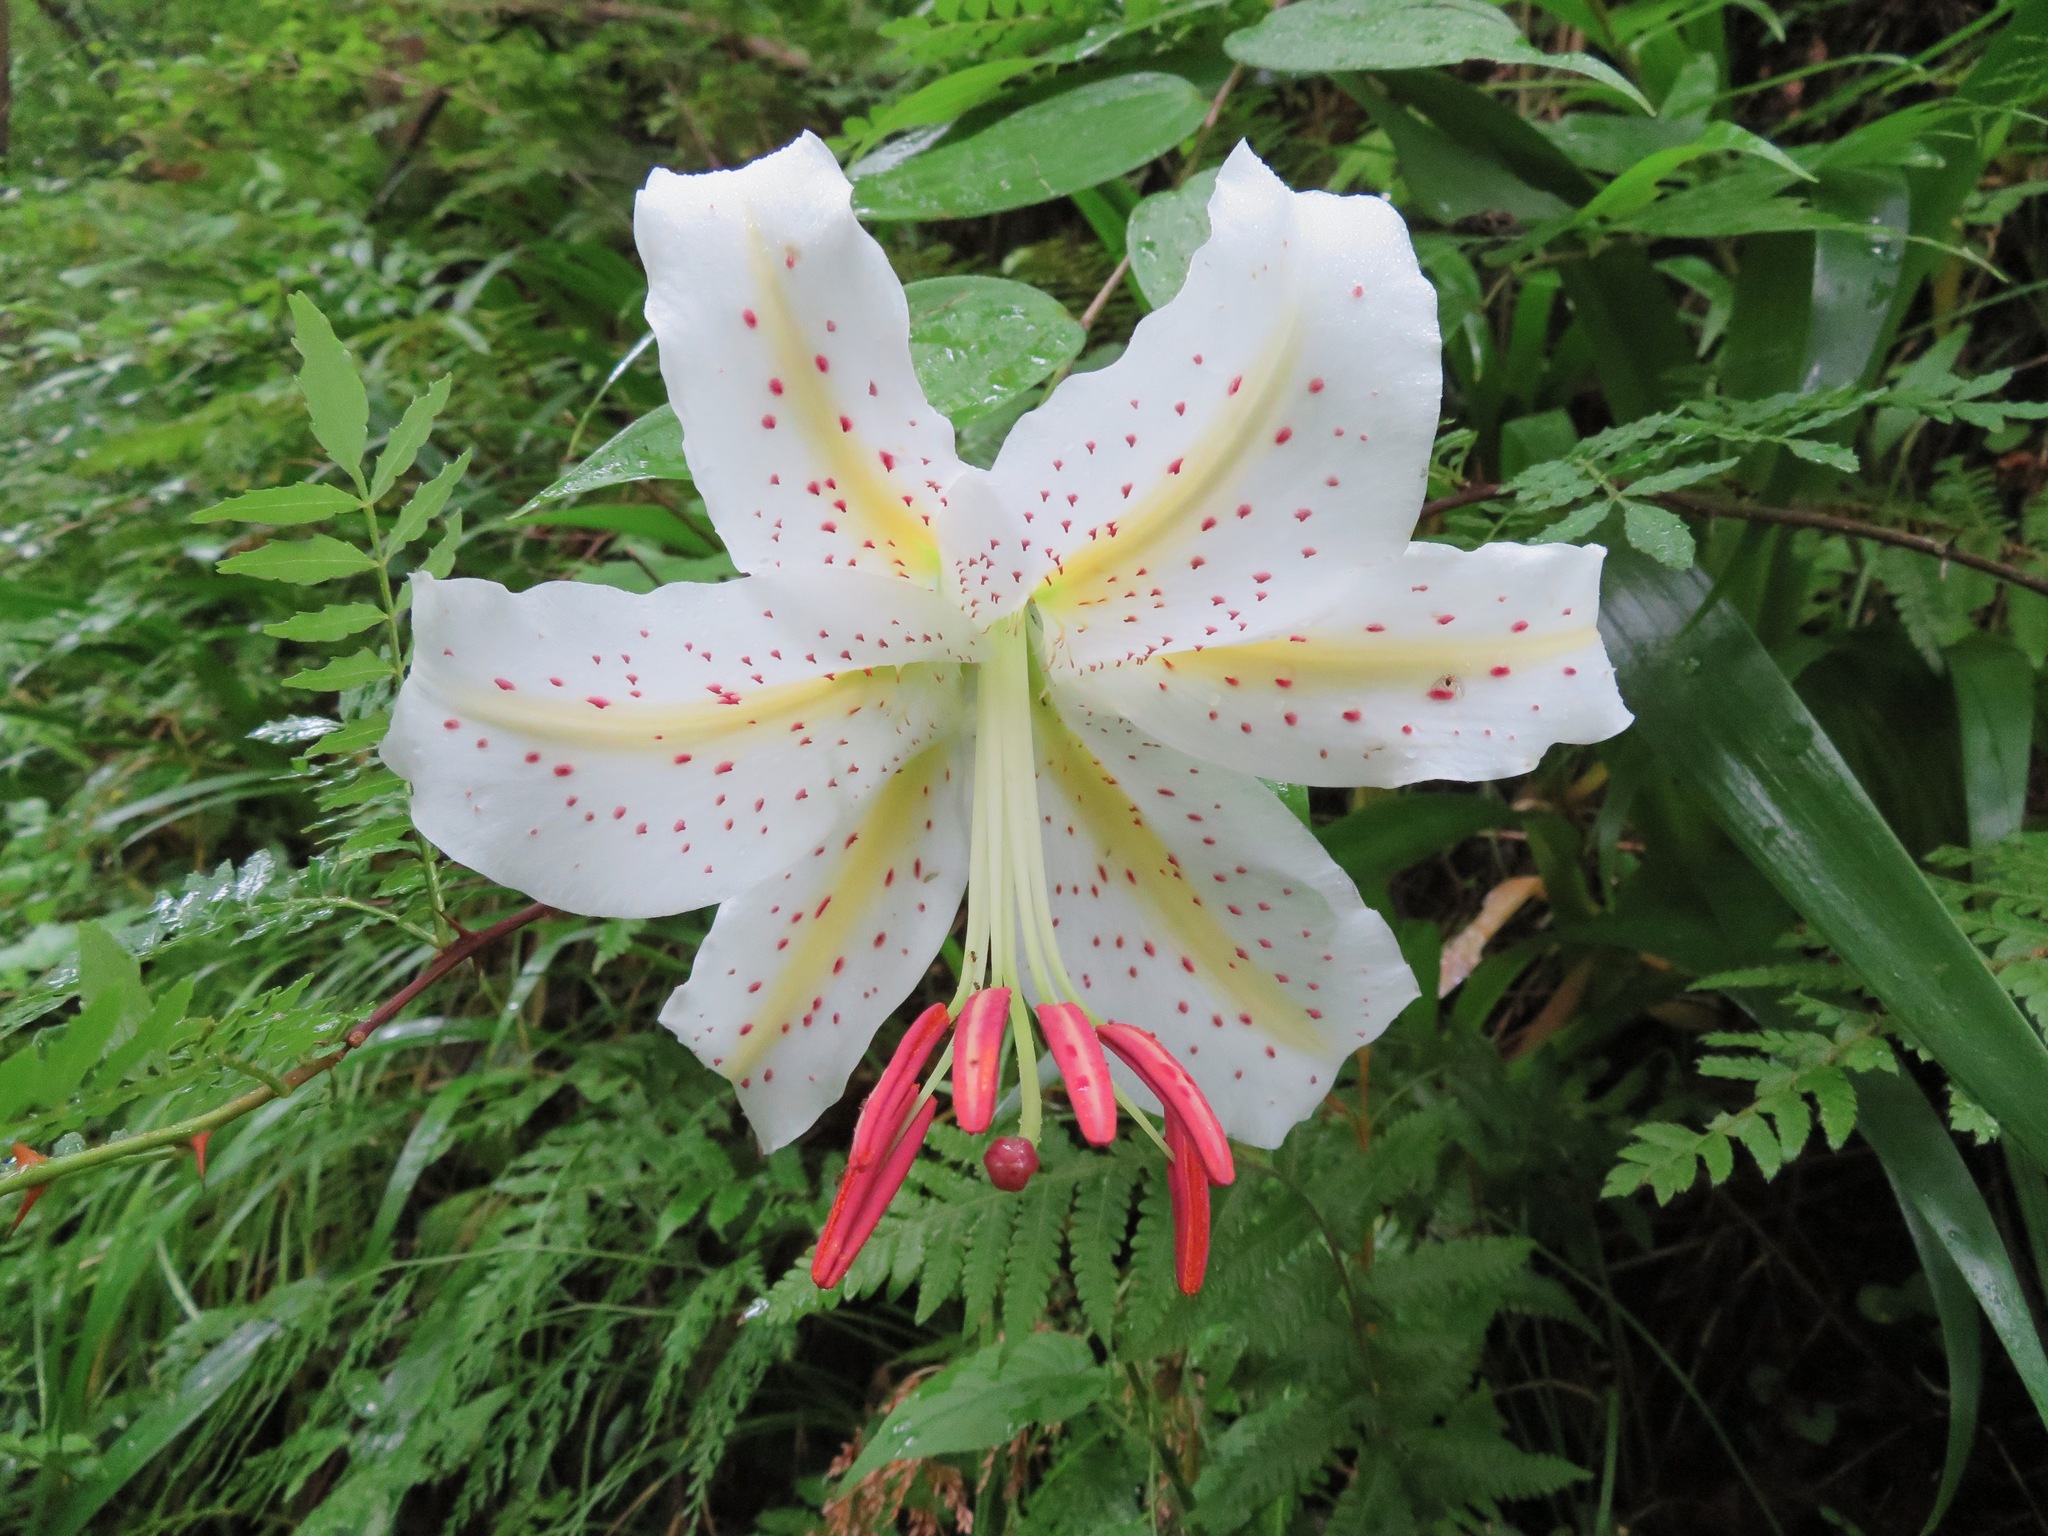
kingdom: Plantae
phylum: Tracheophyta
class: Liliopsida
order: Liliales
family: Liliaceae
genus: Lilium
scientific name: Lilium auratum
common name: Golden-ray lily
